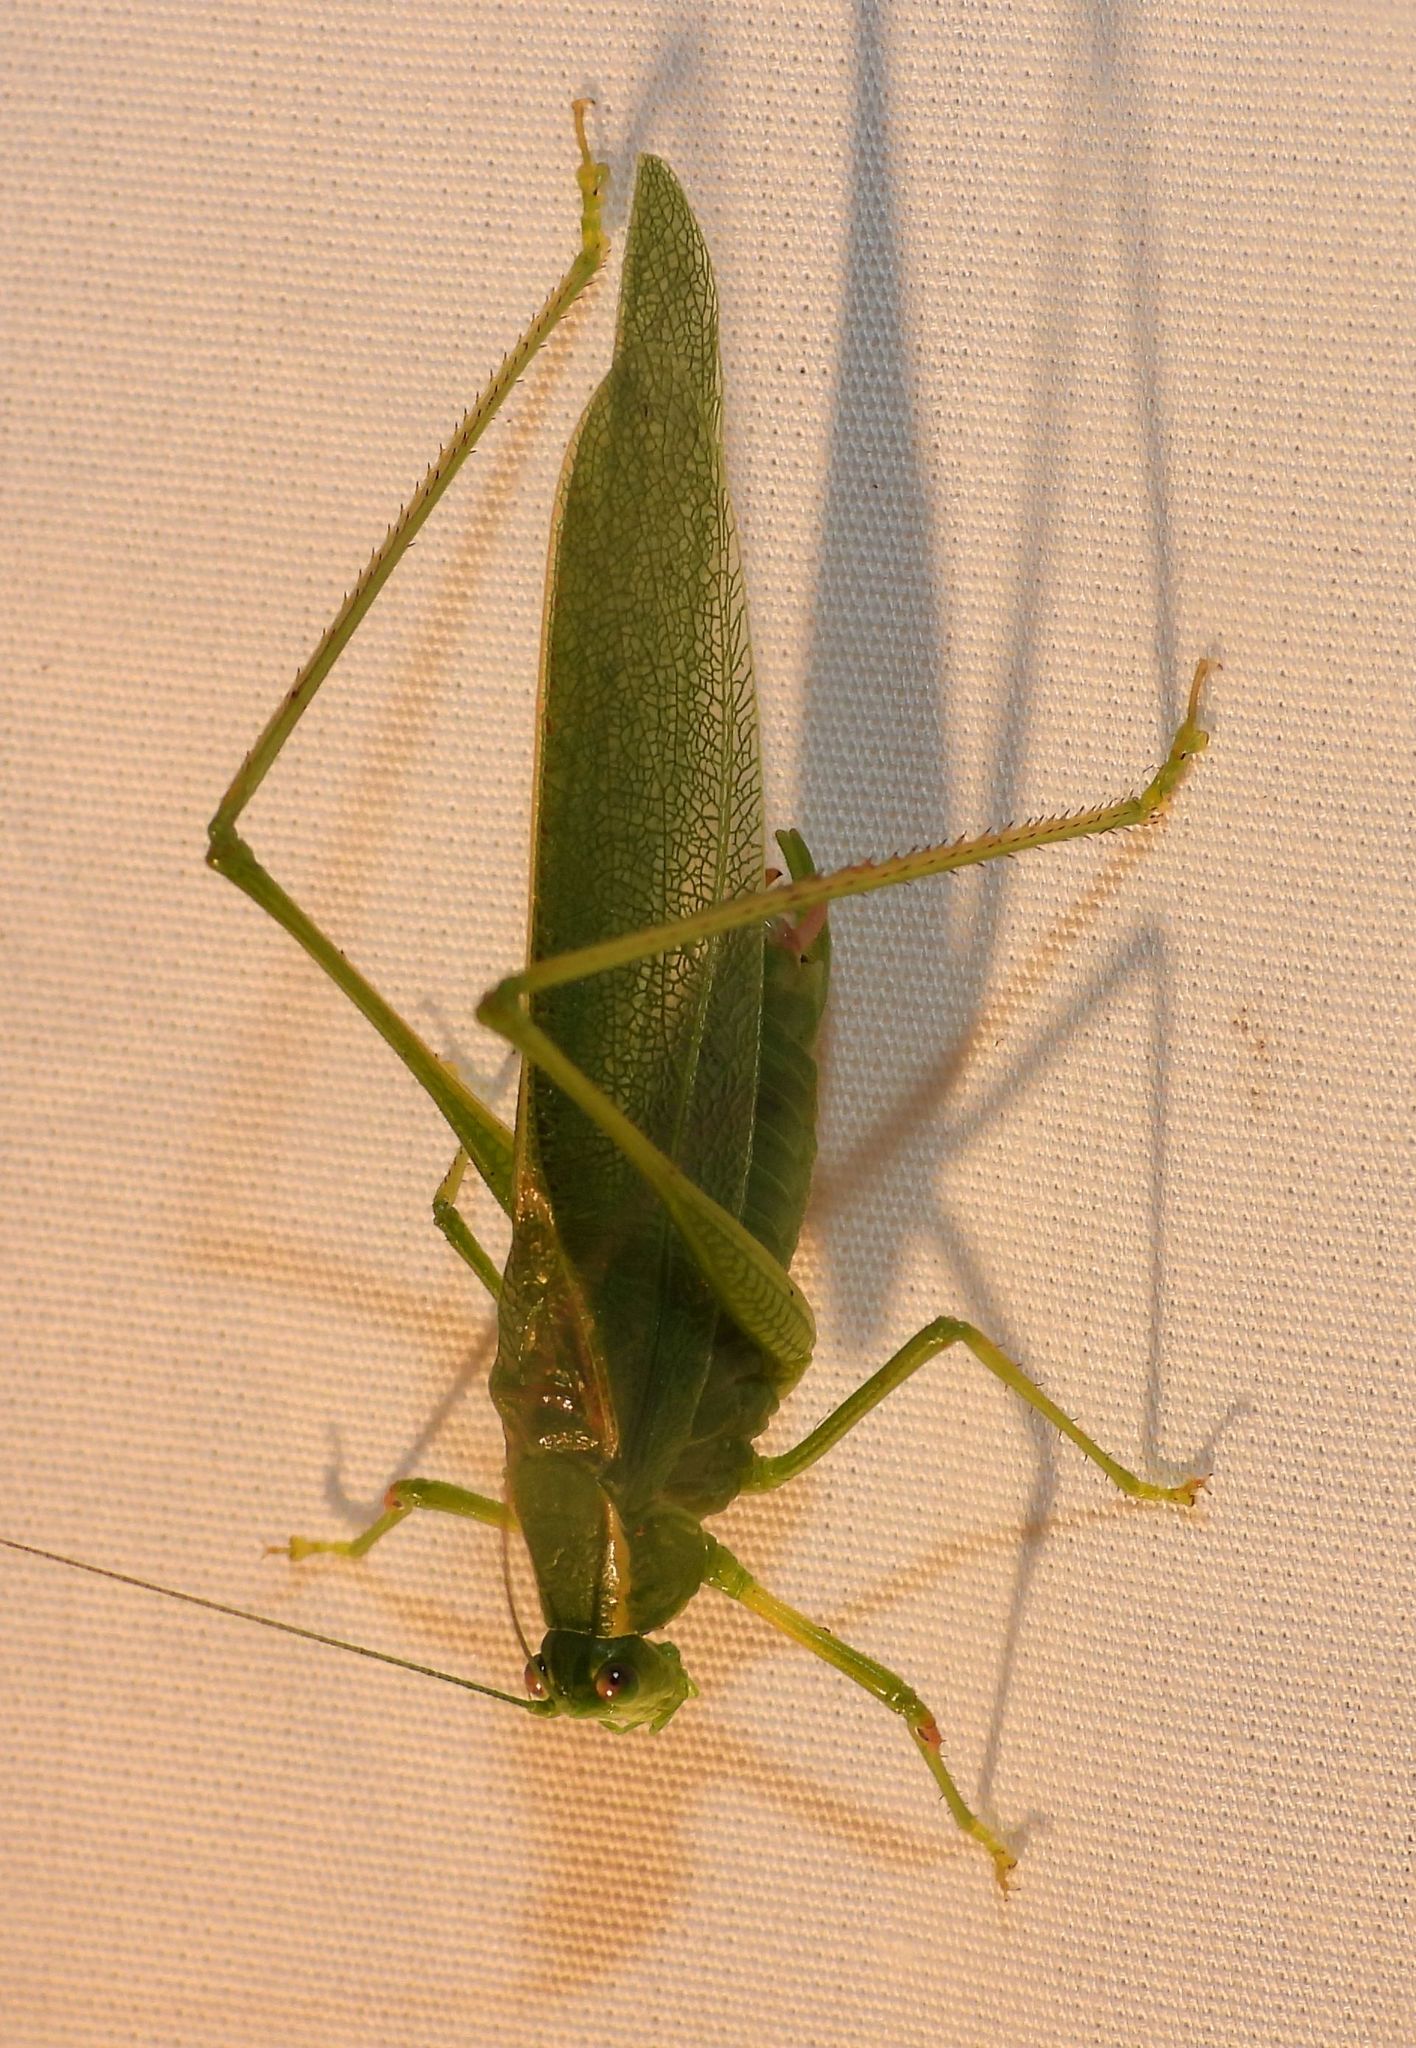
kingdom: Animalia
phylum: Arthropoda
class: Insecta
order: Orthoptera
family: Tettigoniidae
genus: Scudderia
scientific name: Scudderia septentrionalis
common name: Northern bush-katydid
